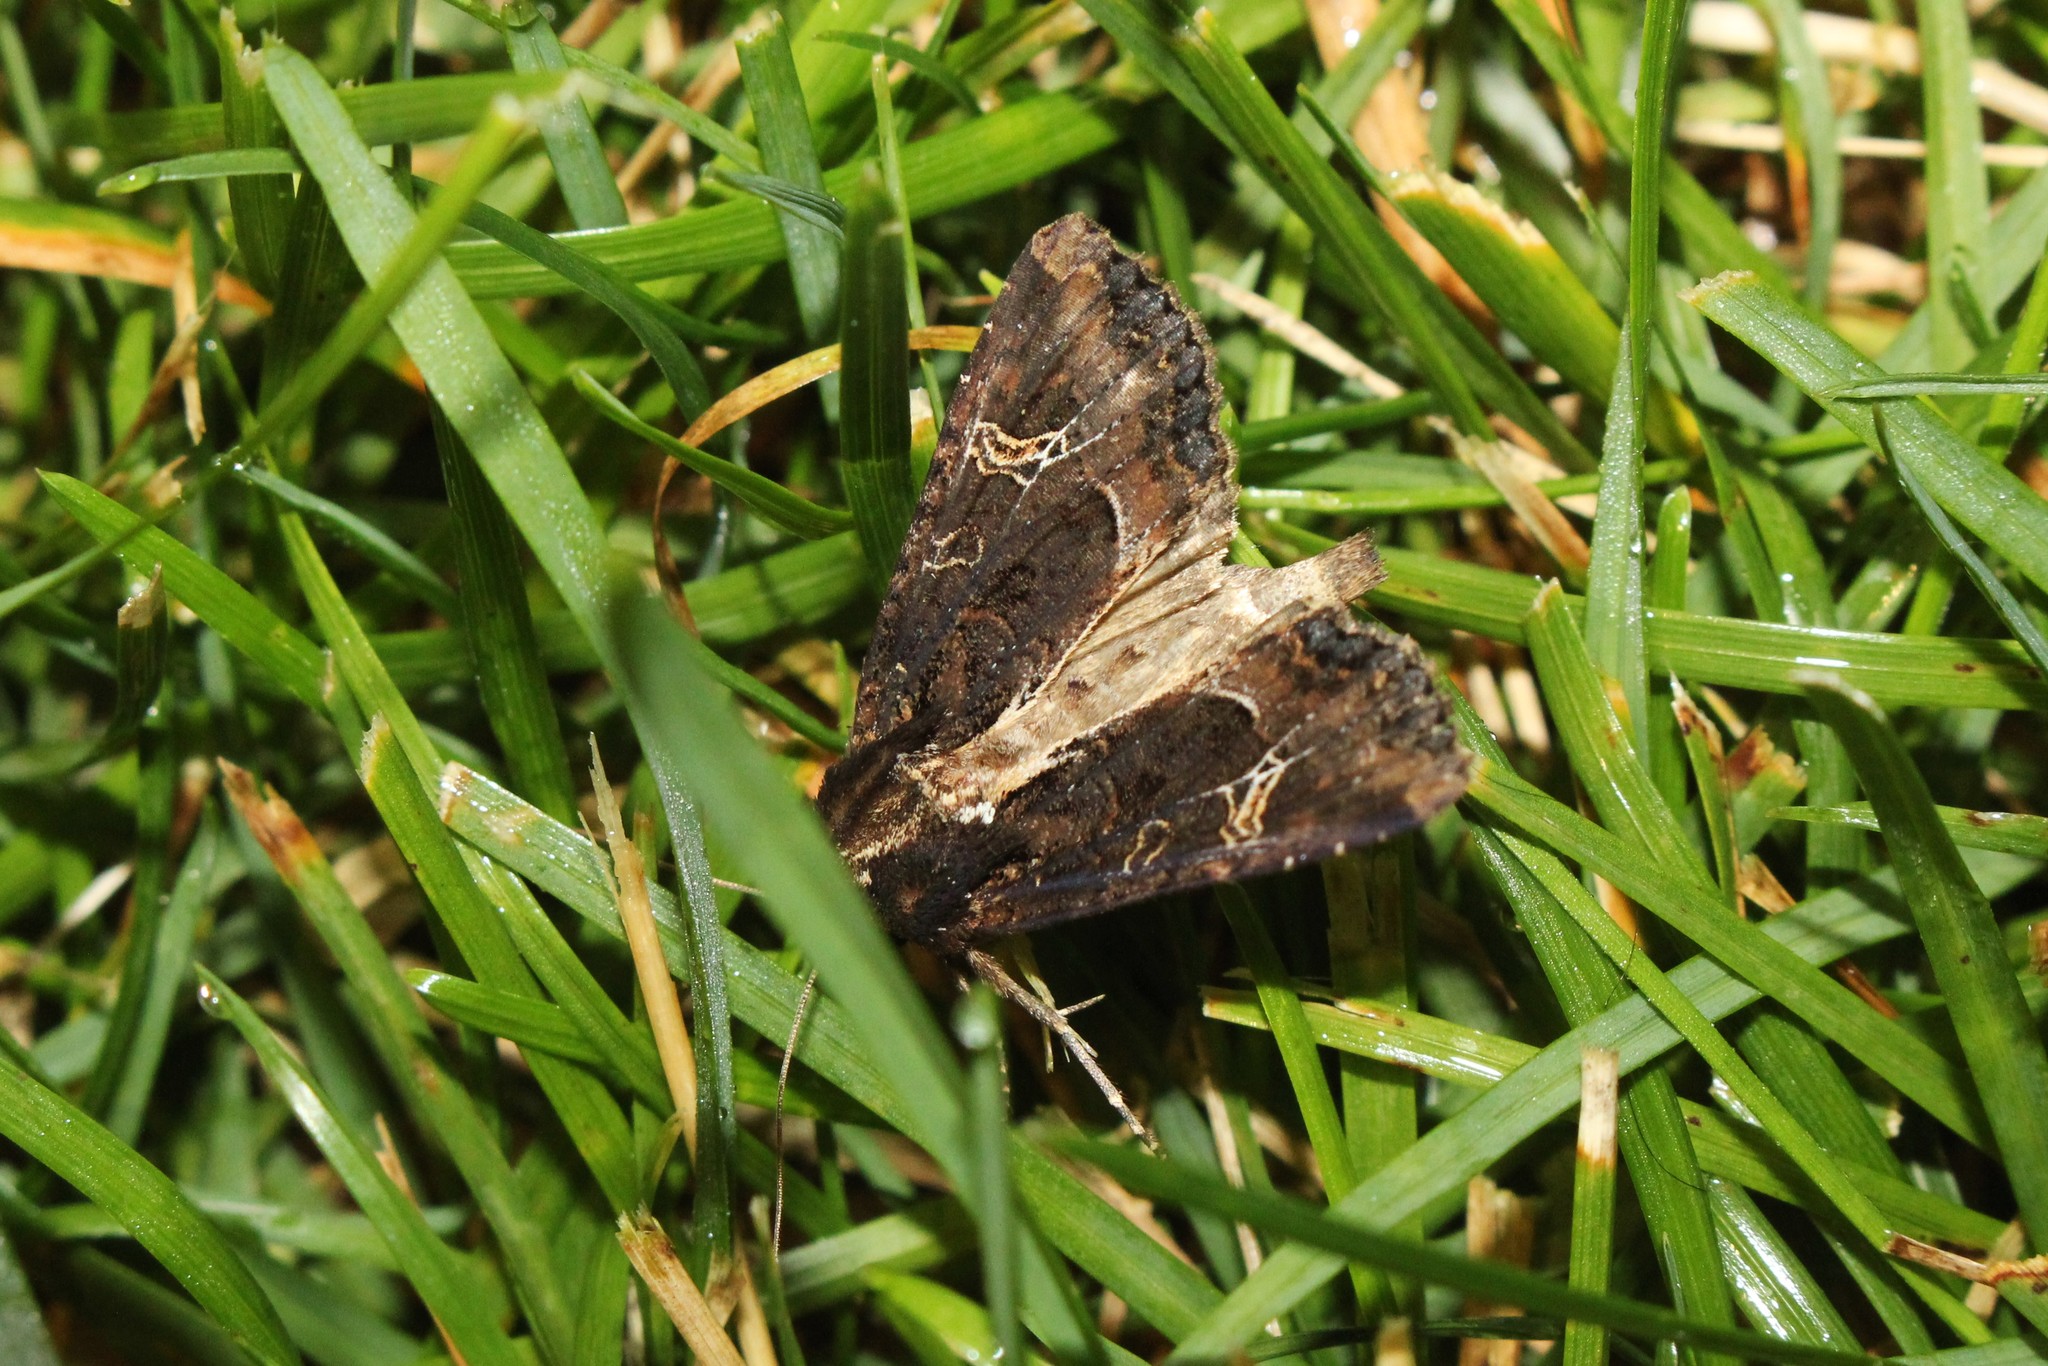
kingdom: Animalia
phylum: Arthropoda
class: Insecta
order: Lepidoptera
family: Noctuidae
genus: Helotropha
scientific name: Helotropha reniformis
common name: Kidney-spotted rustic moth
